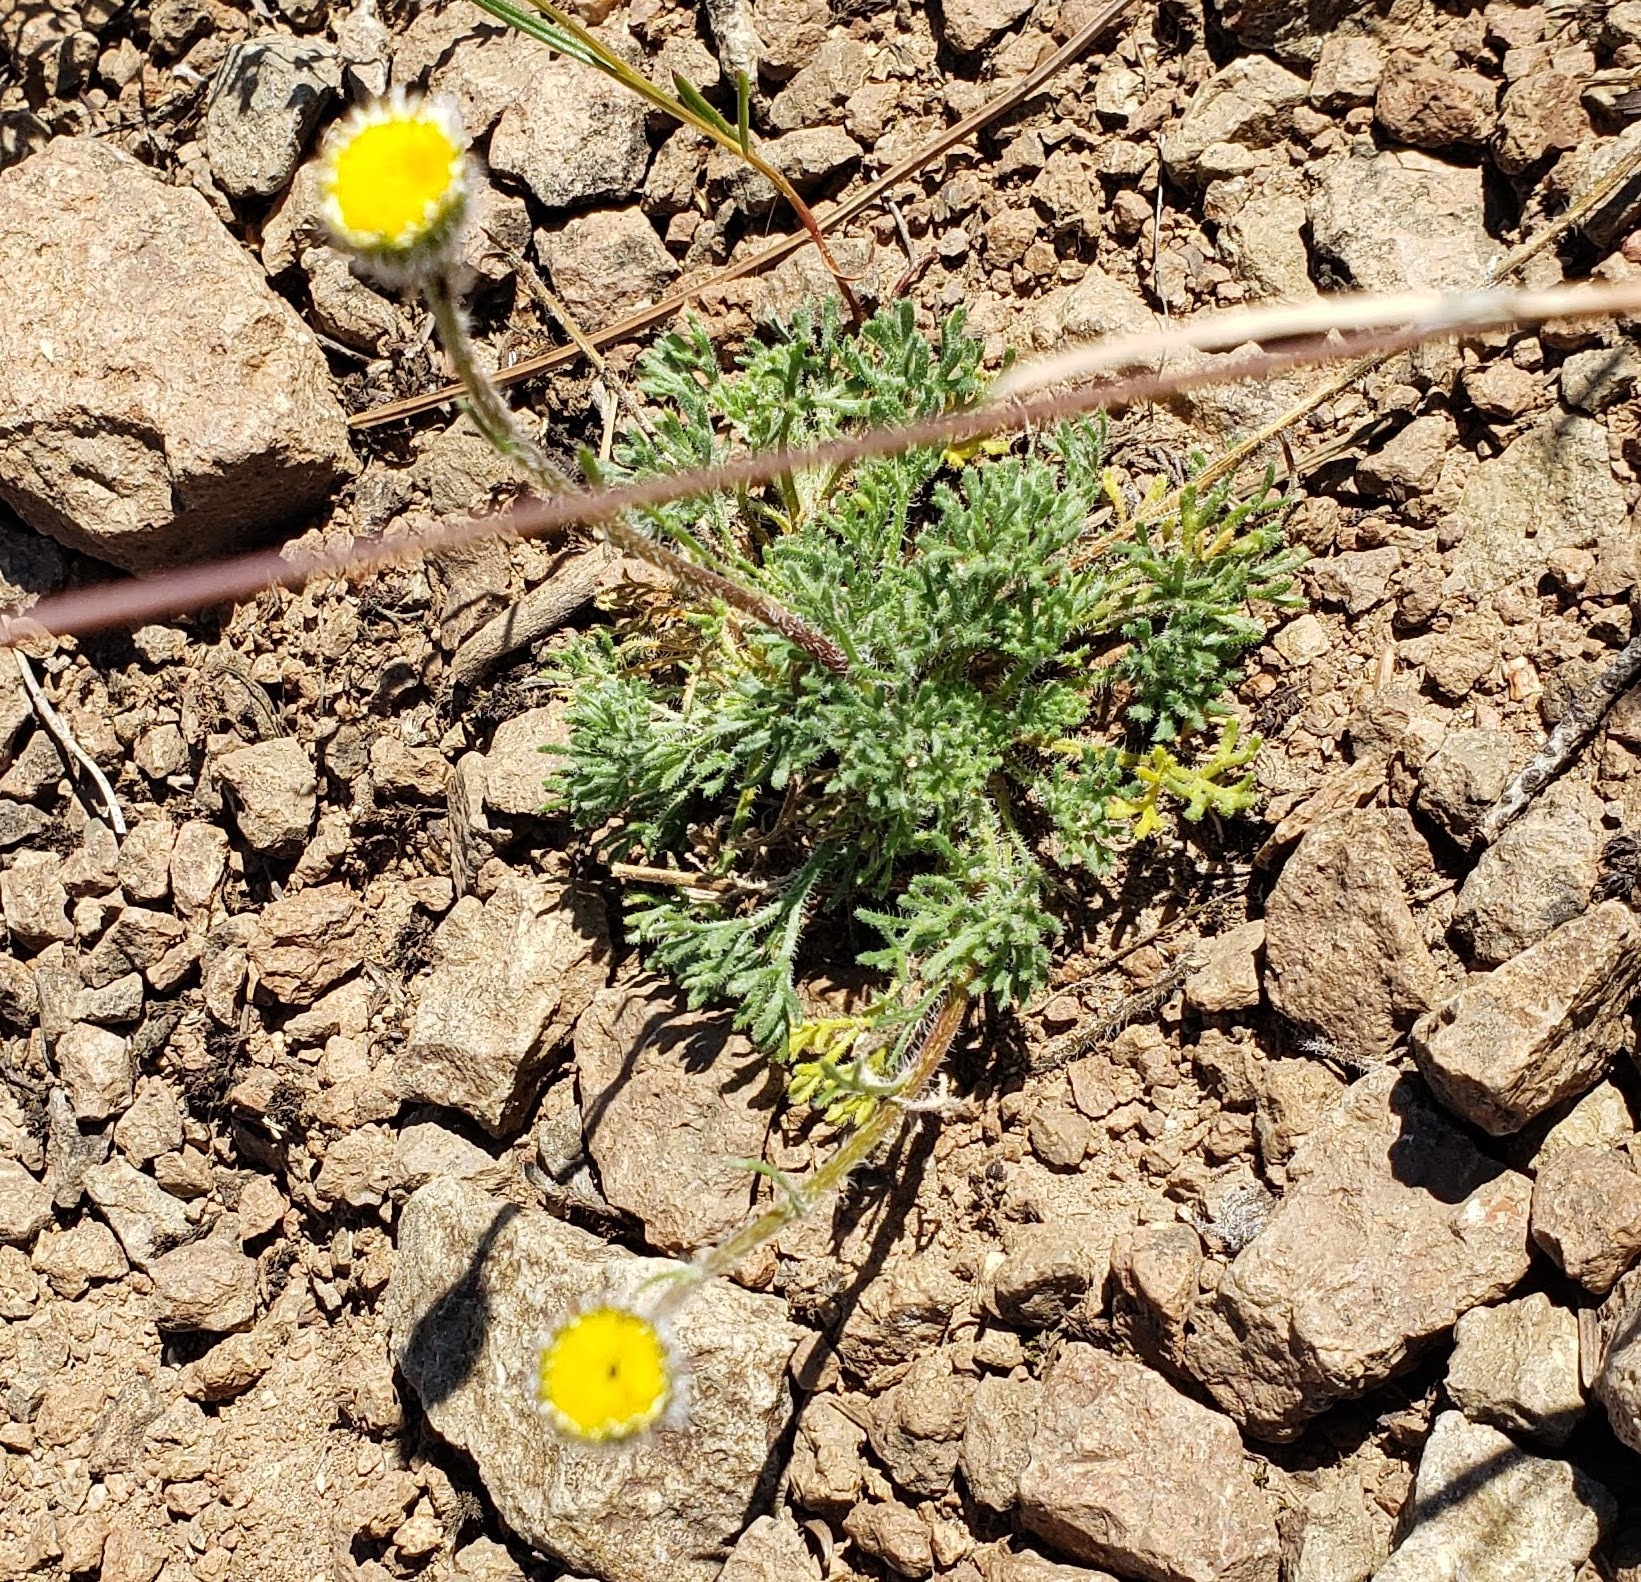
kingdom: Plantae
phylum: Tracheophyta
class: Magnoliopsida
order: Asterales
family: Asteraceae
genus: Erigeron
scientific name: Erigeron compositus
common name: Dwarf mountain fleabane
